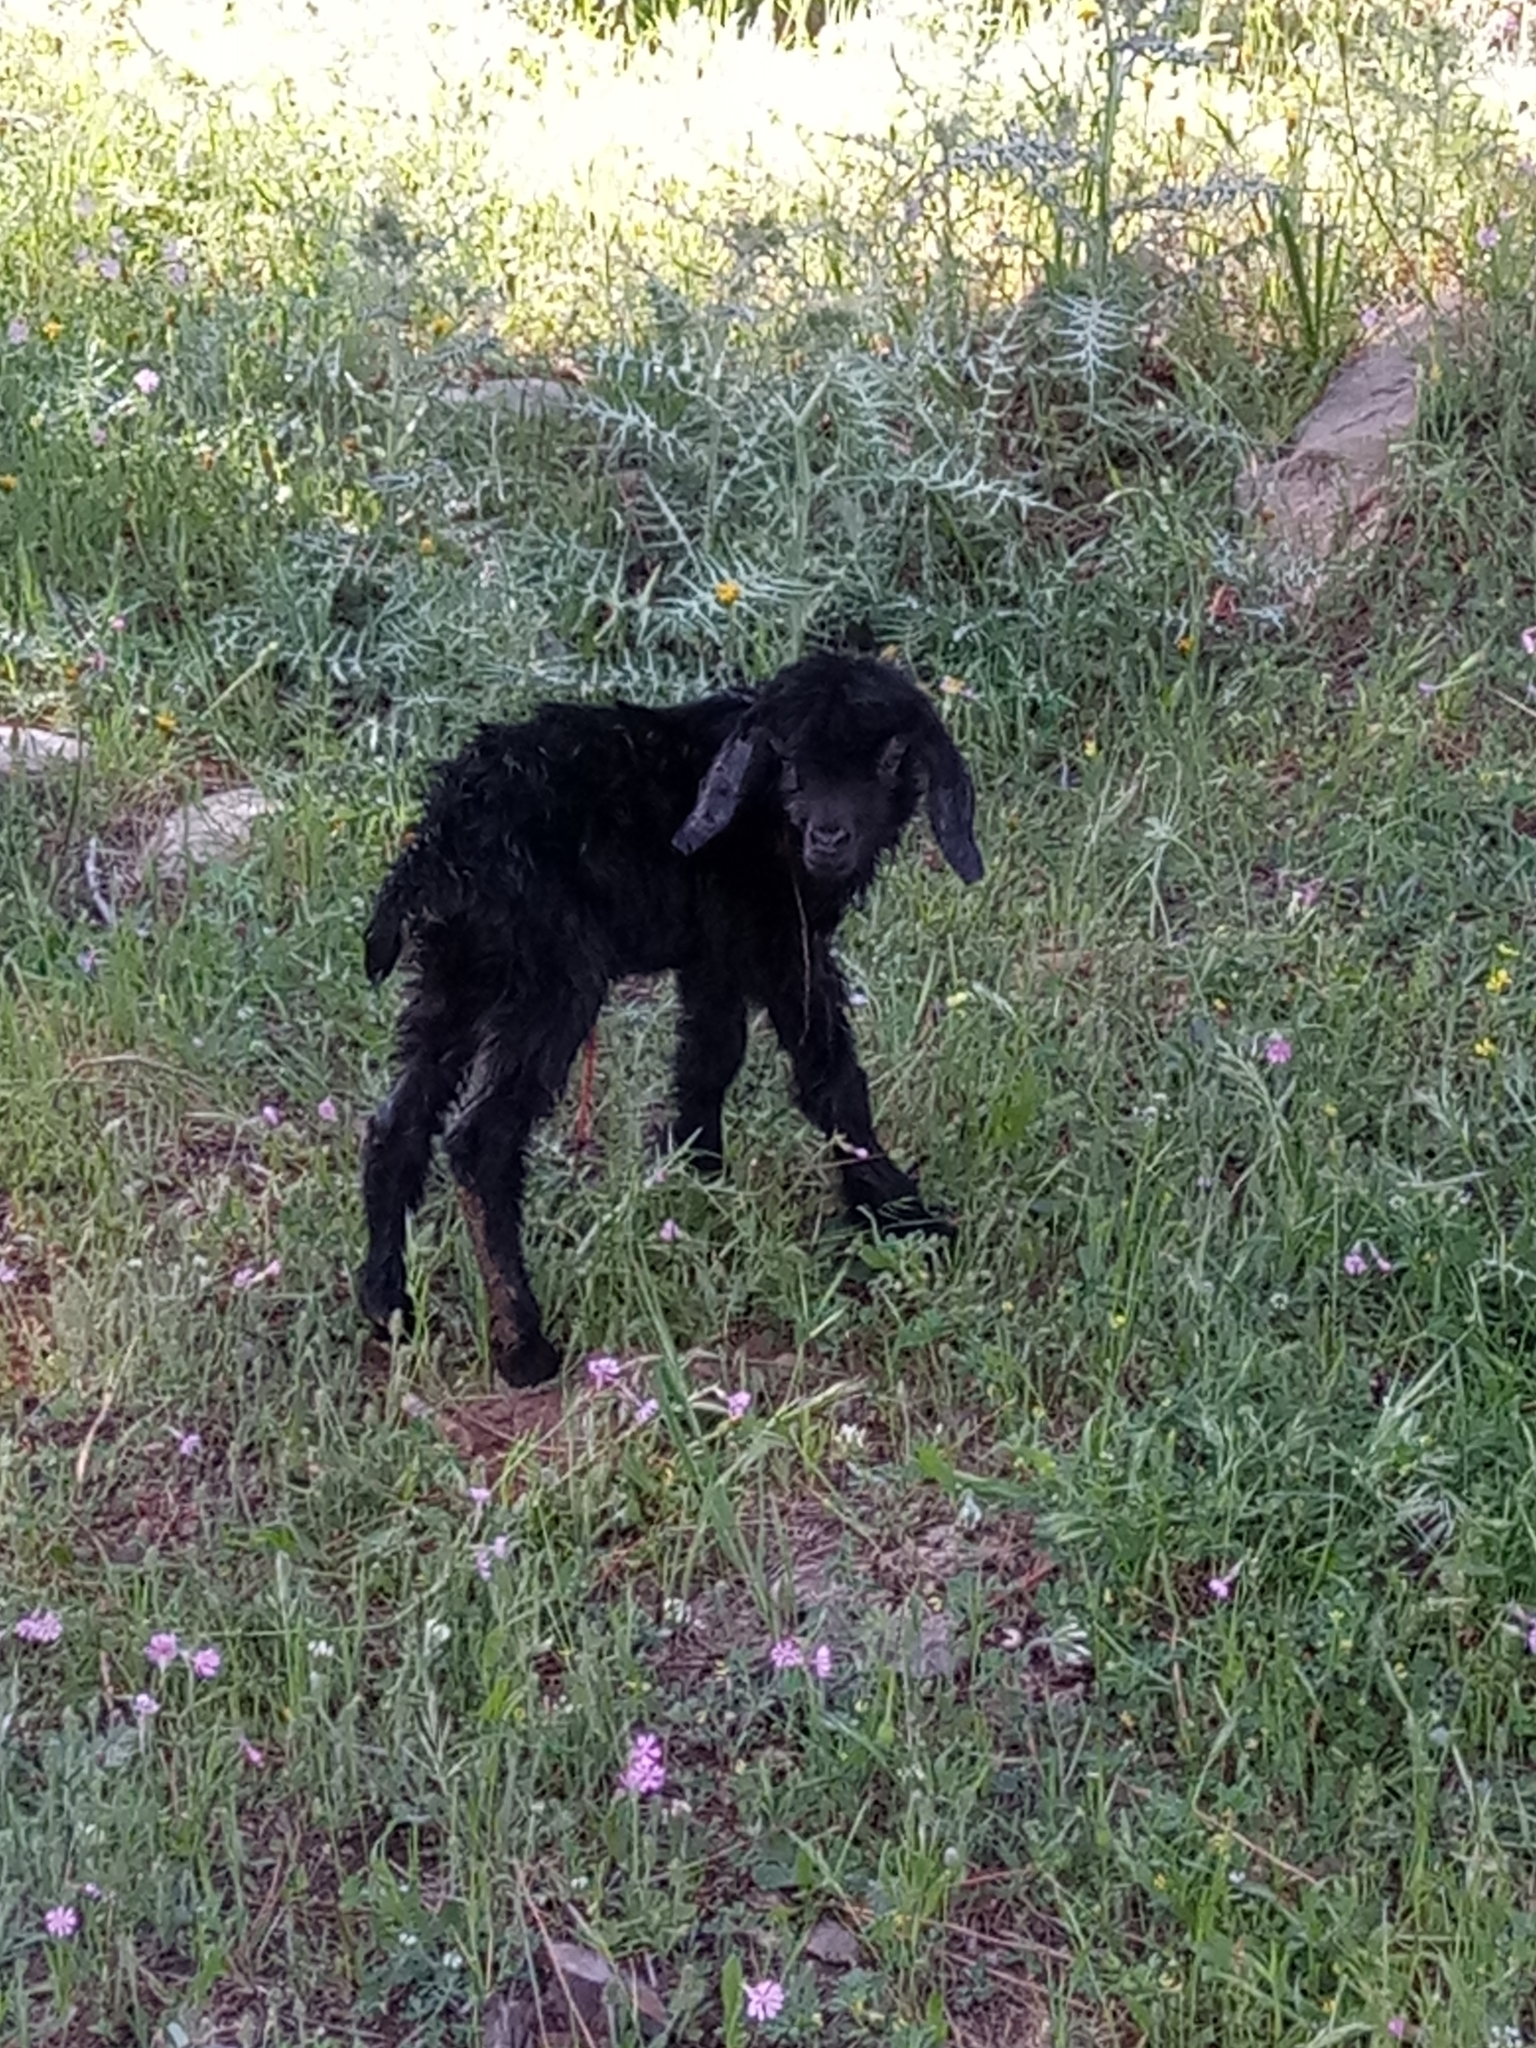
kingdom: Animalia
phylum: Chordata
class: Mammalia
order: Artiodactyla
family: Bovidae
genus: Capra
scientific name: Capra hircus
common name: Domestic goat
